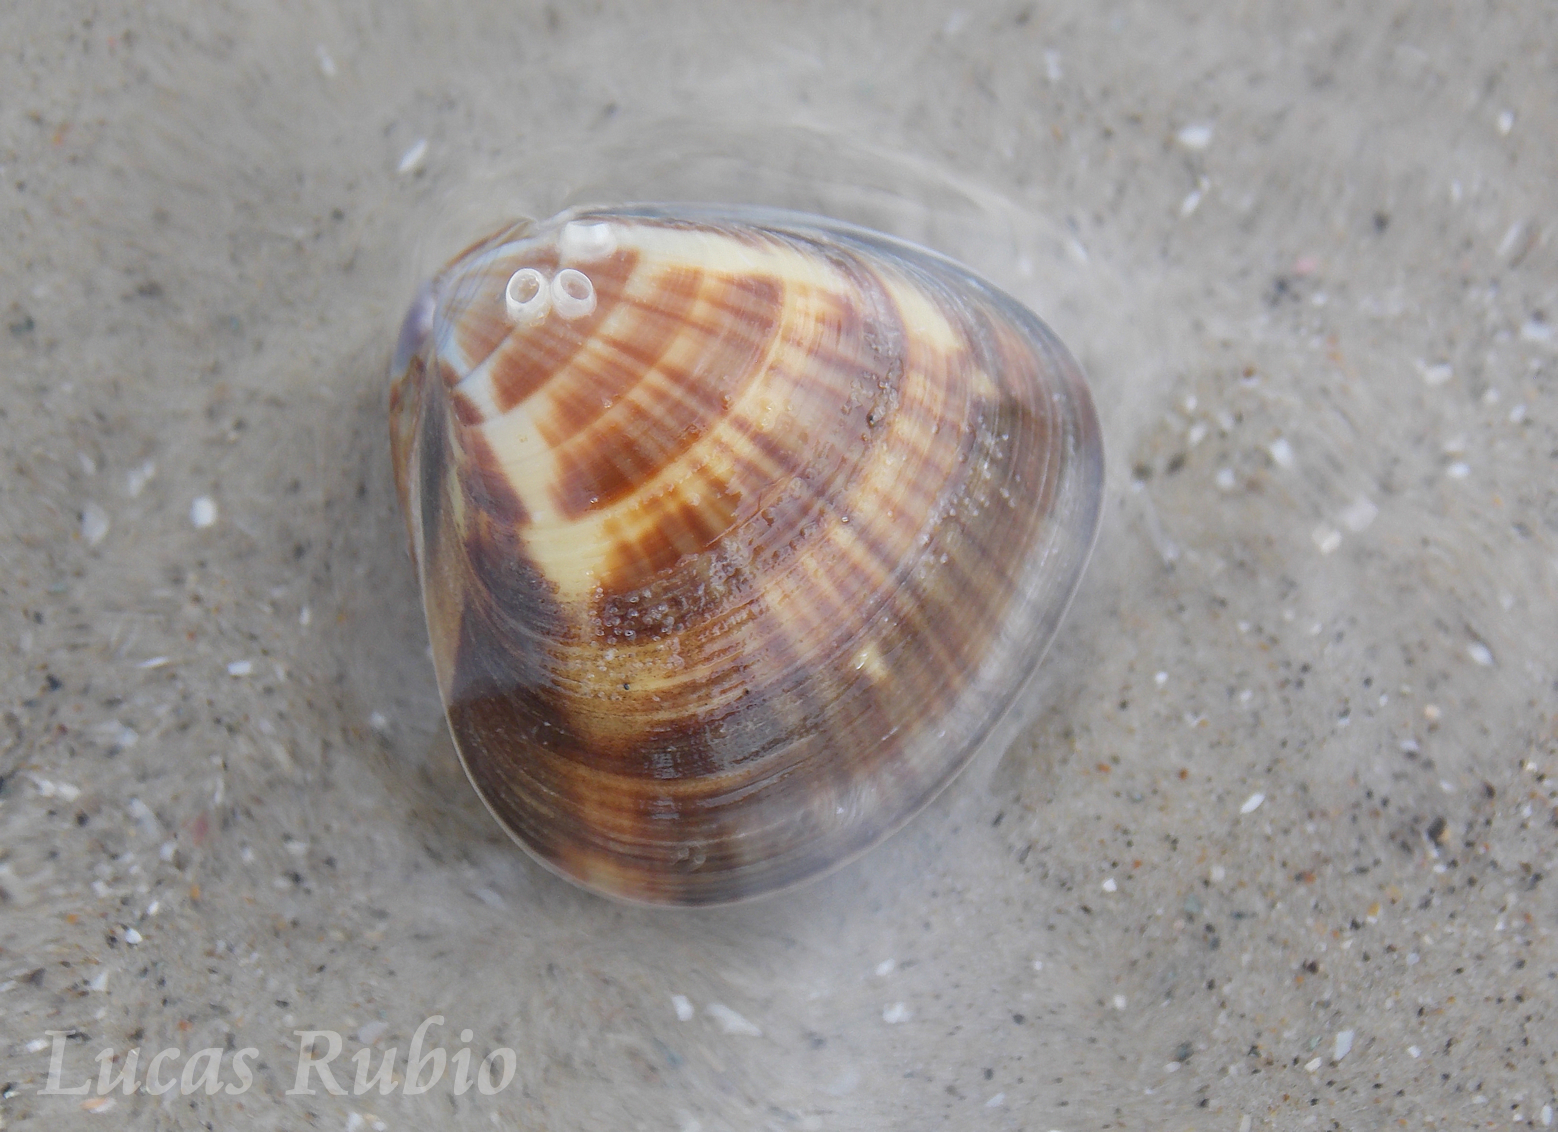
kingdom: Animalia
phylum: Mollusca
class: Bivalvia
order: Venerida
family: Veneridae
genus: Tivela
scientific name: Tivela mactroides
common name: Trigonal tivela
